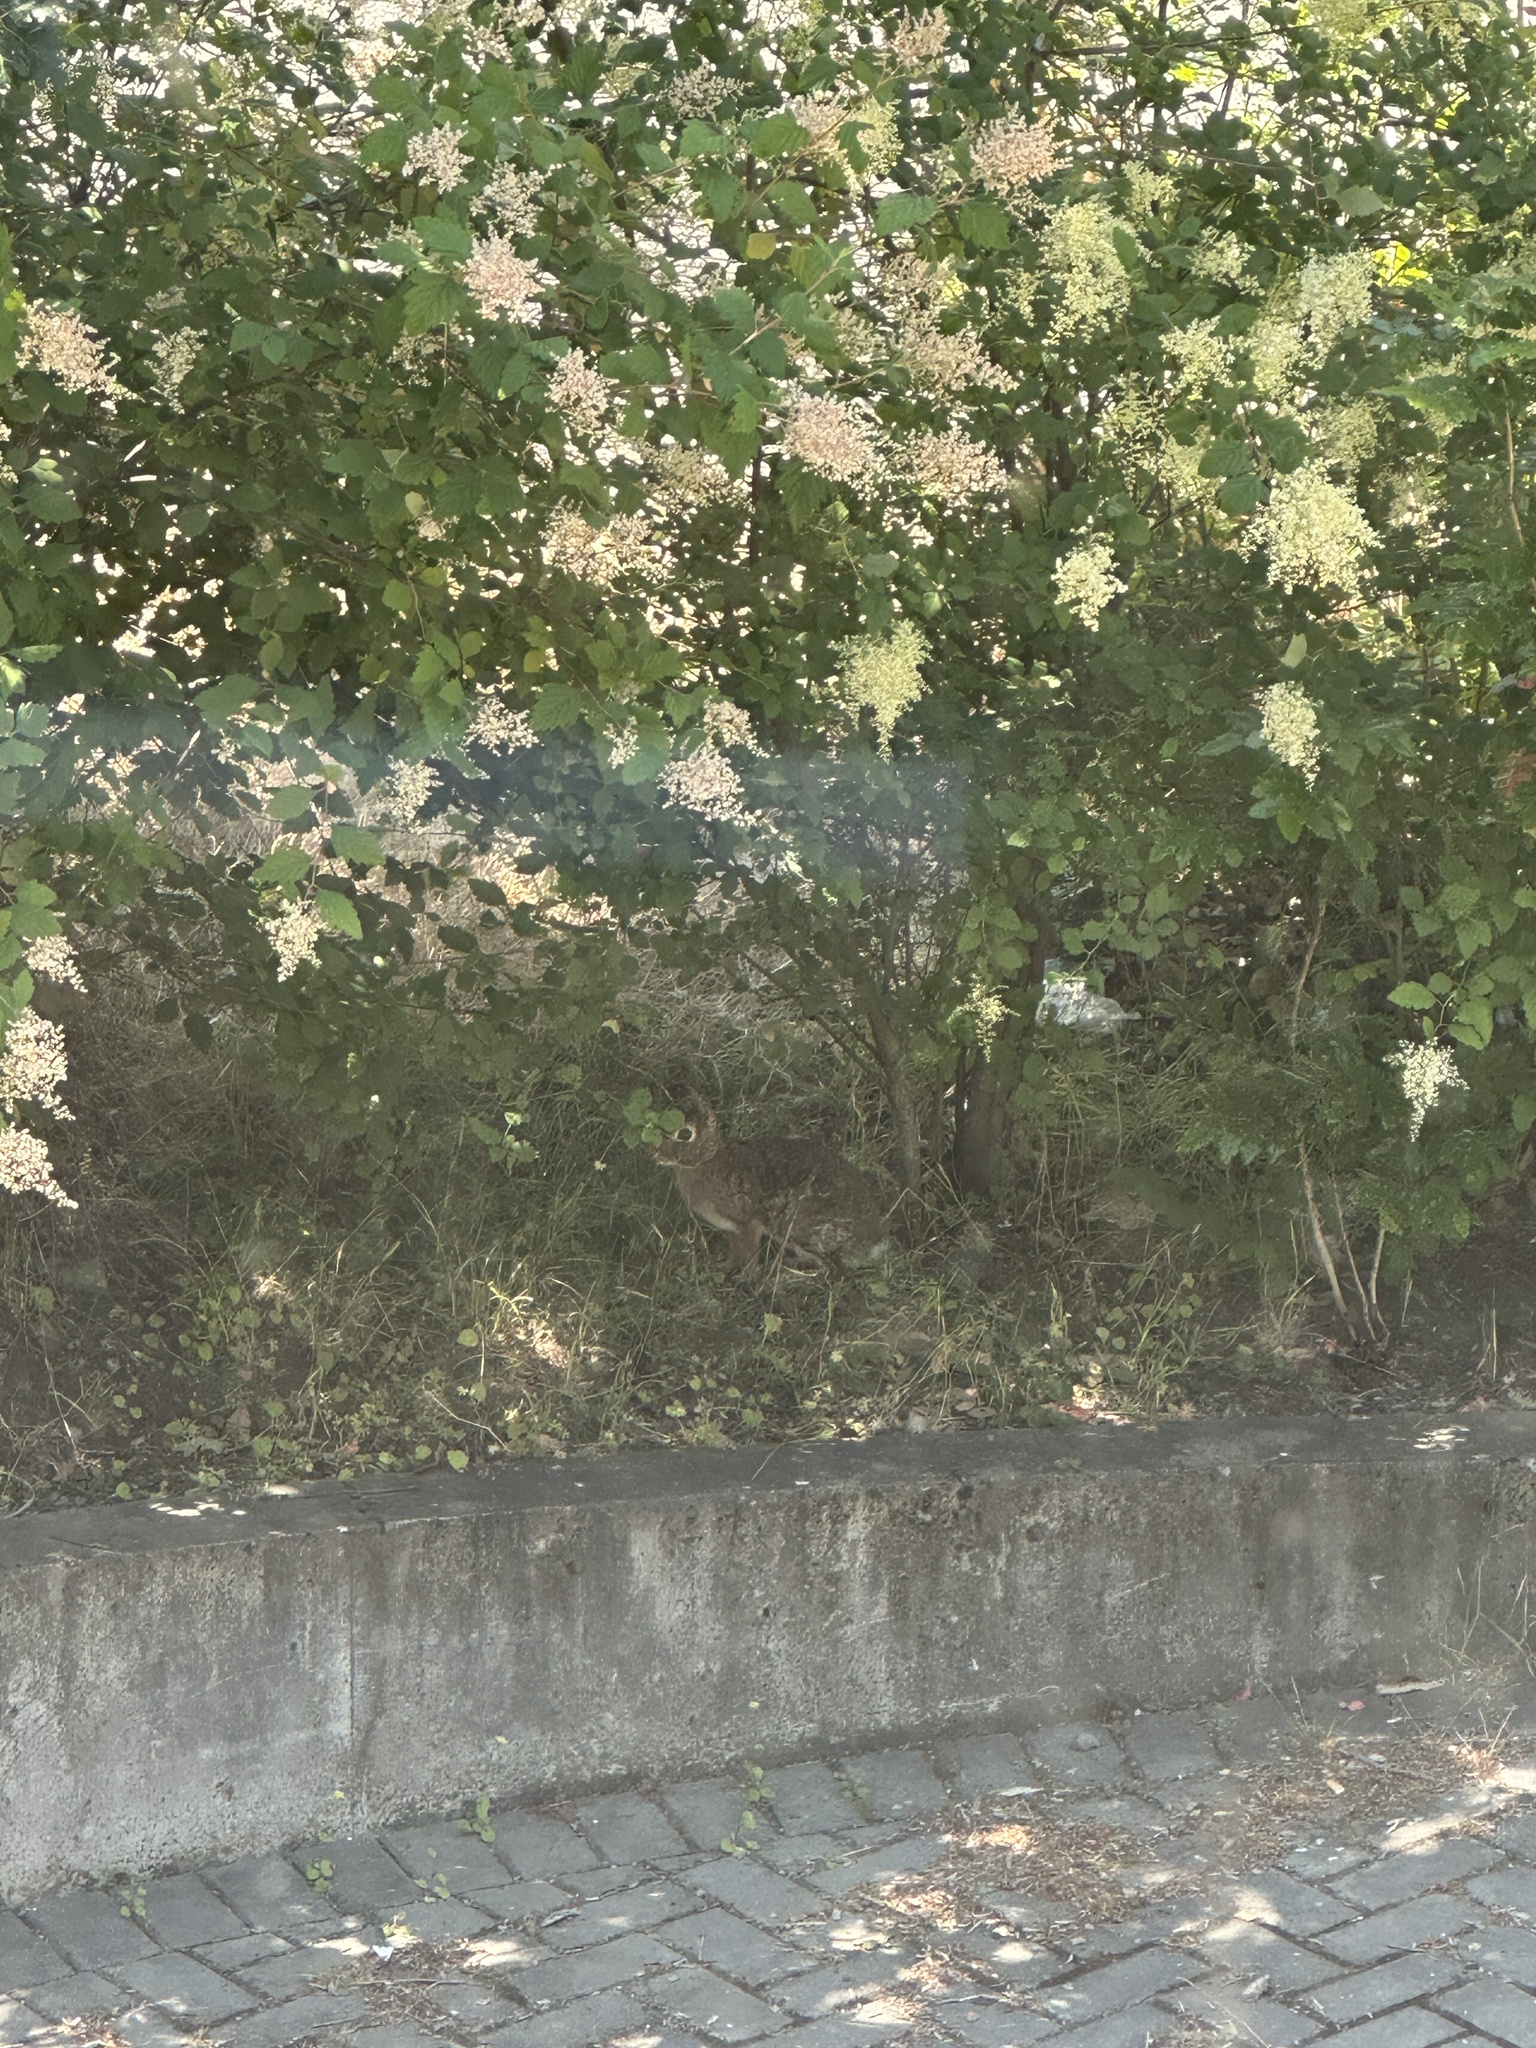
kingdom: Animalia
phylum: Chordata
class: Mammalia
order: Lagomorpha
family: Leporidae
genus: Sylvilagus
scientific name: Sylvilagus floridanus
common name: Eastern cottontail
